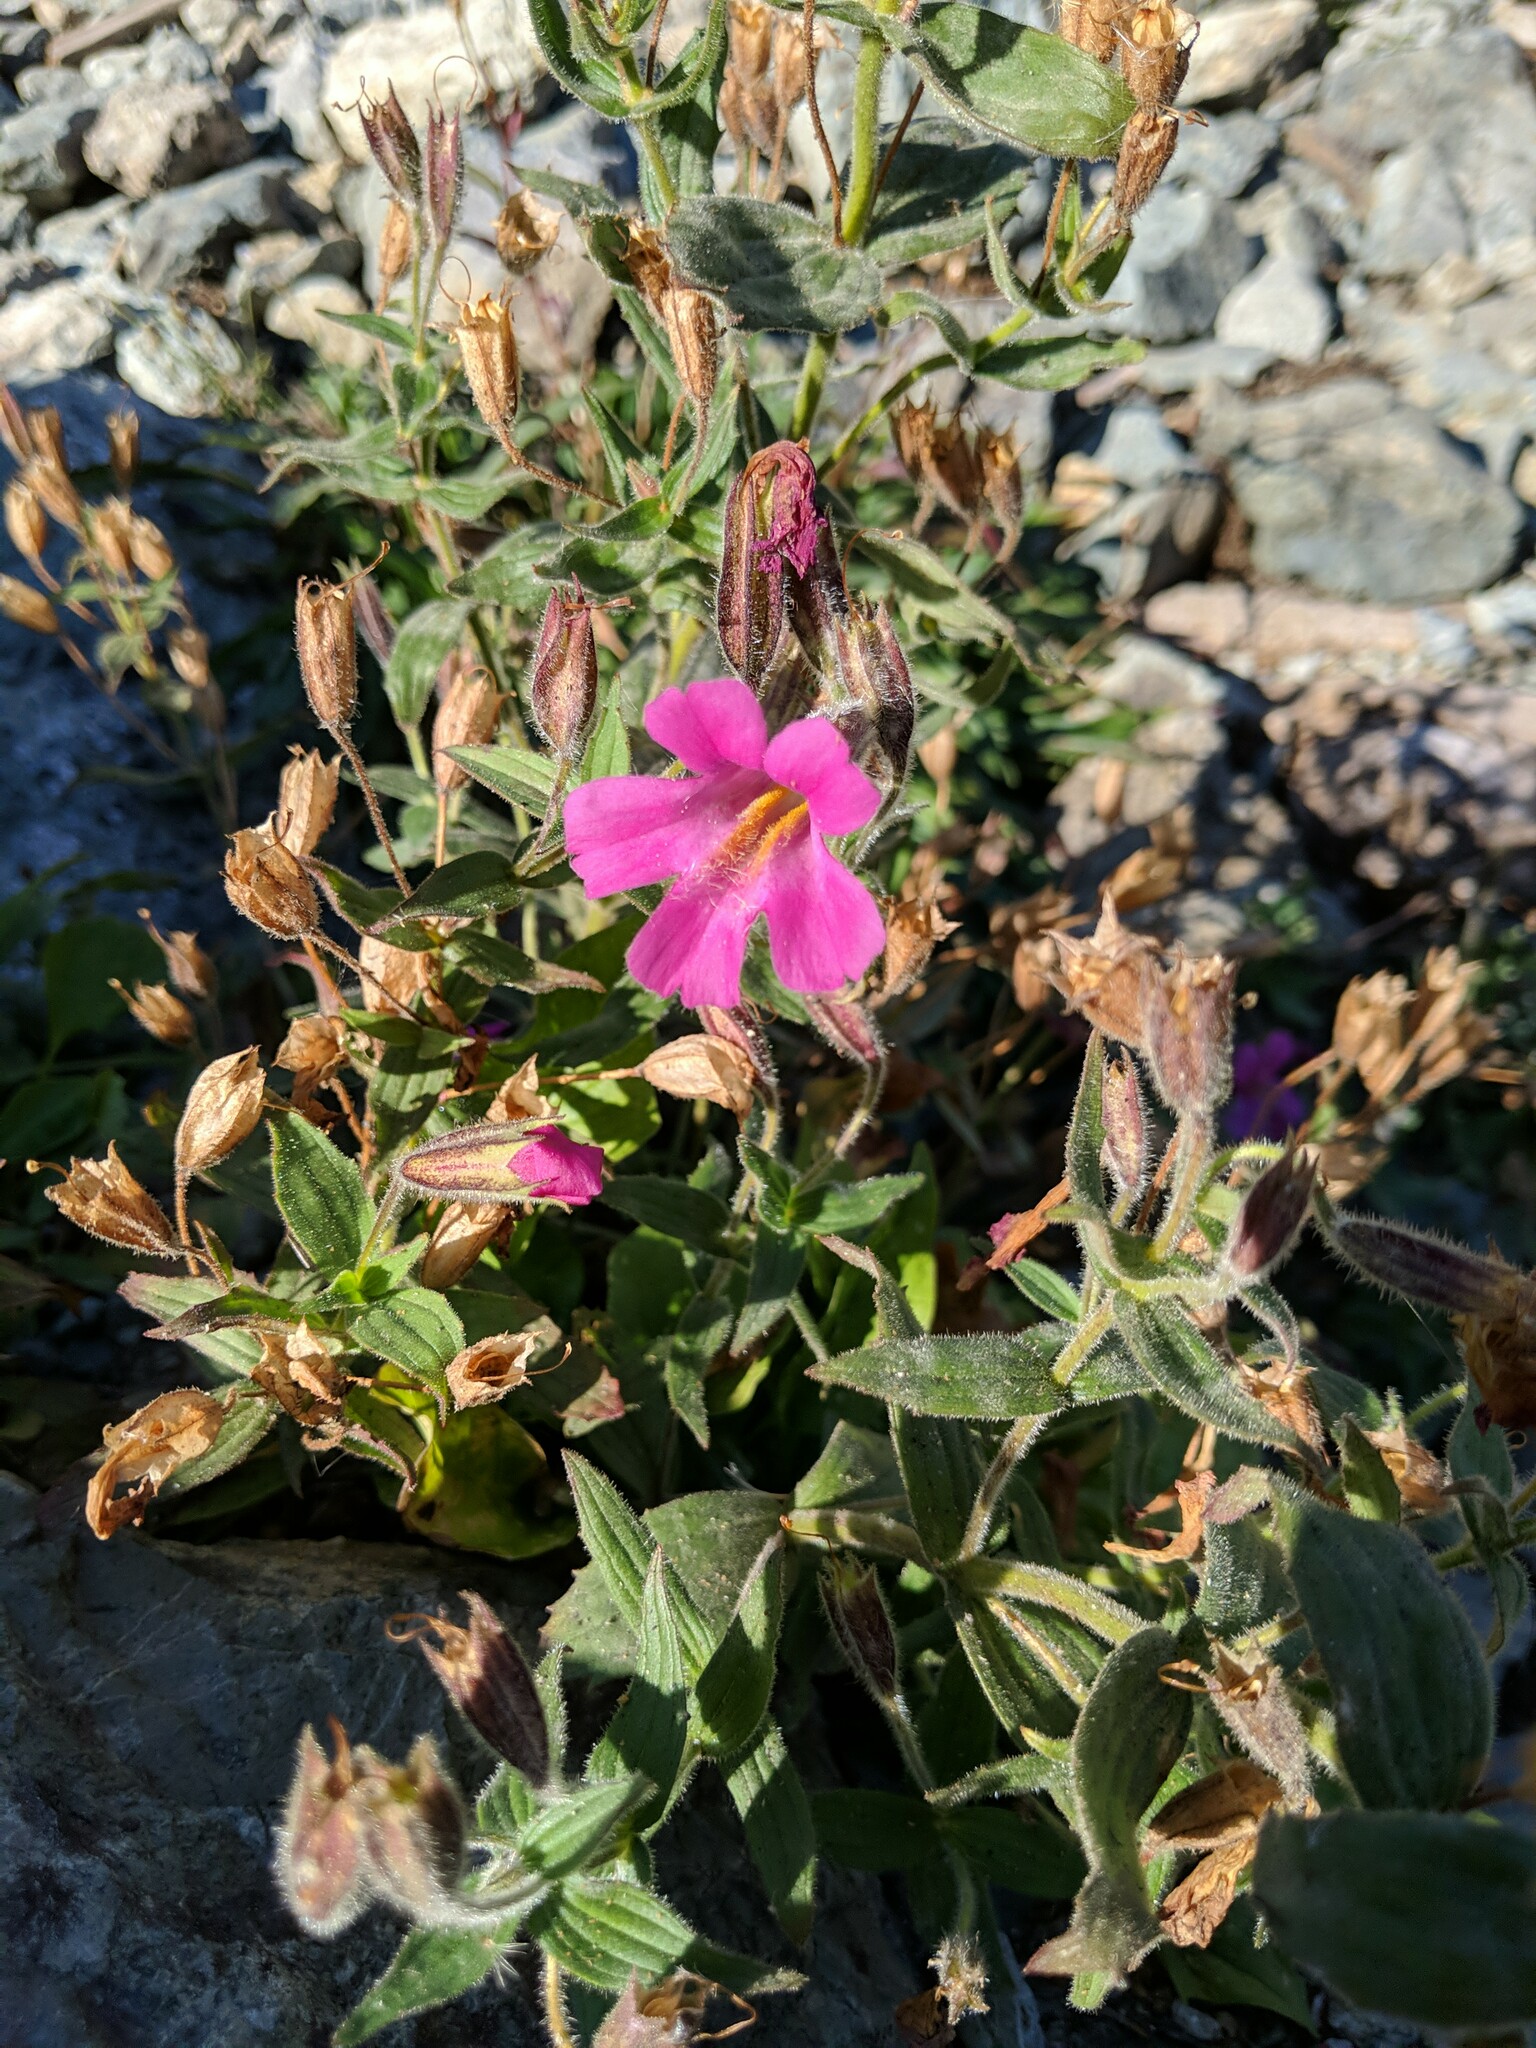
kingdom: Plantae
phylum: Tracheophyta
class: Magnoliopsida
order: Lamiales
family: Phrymaceae
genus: Erythranthe
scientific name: Erythranthe lewisii
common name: Lewis's monkey-flower
